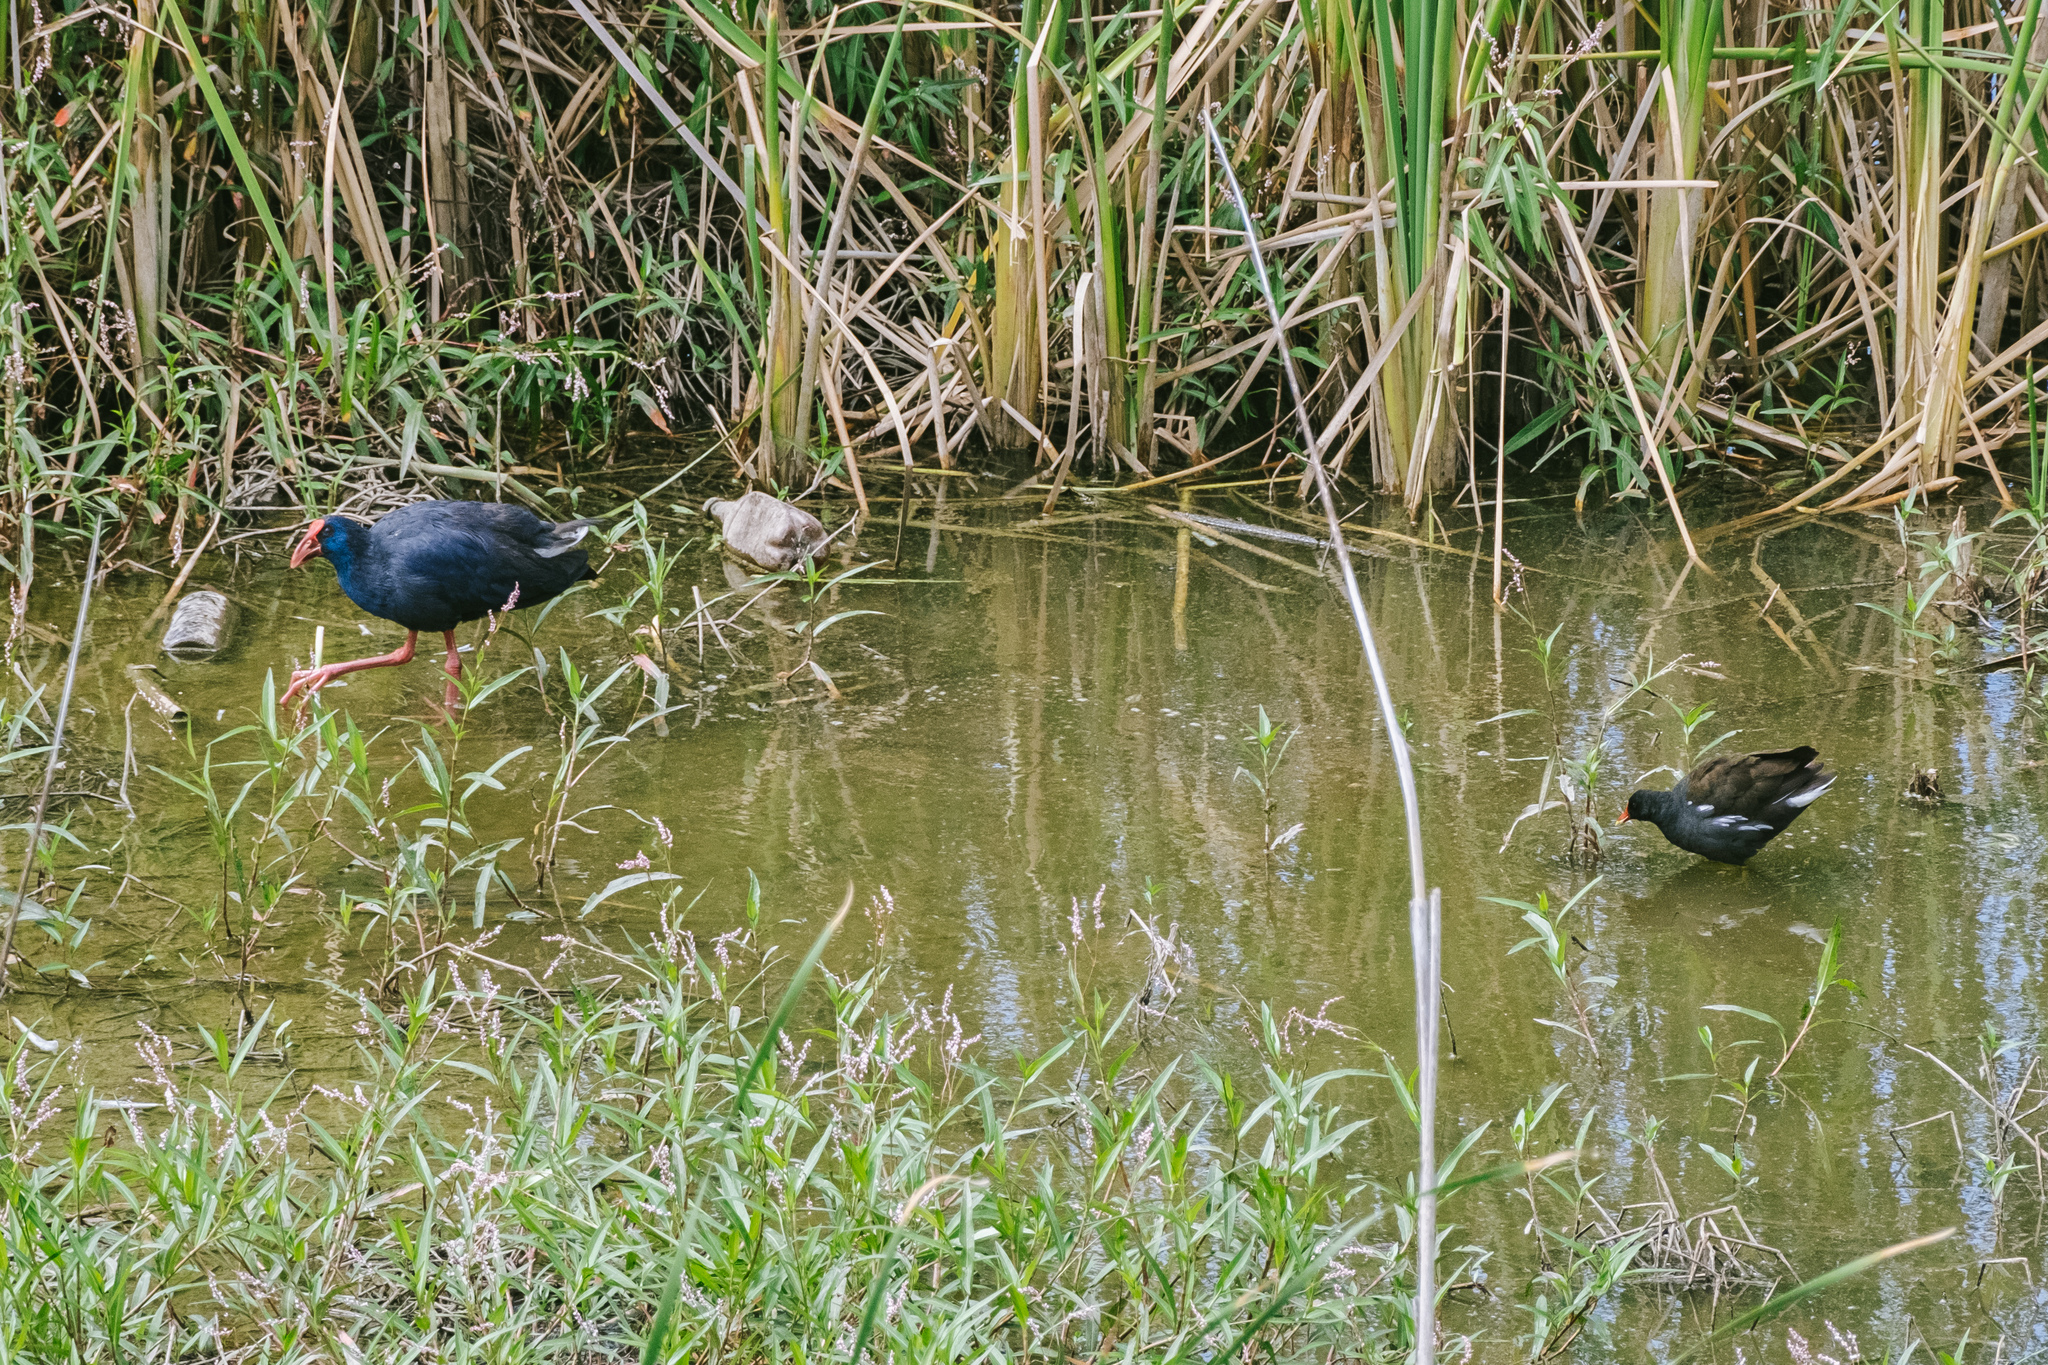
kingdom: Animalia
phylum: Chordata
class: Aves
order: Gruiformes
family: Rallidae
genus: Gallinula
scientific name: Gallinula chloropus
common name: Common moorhen
